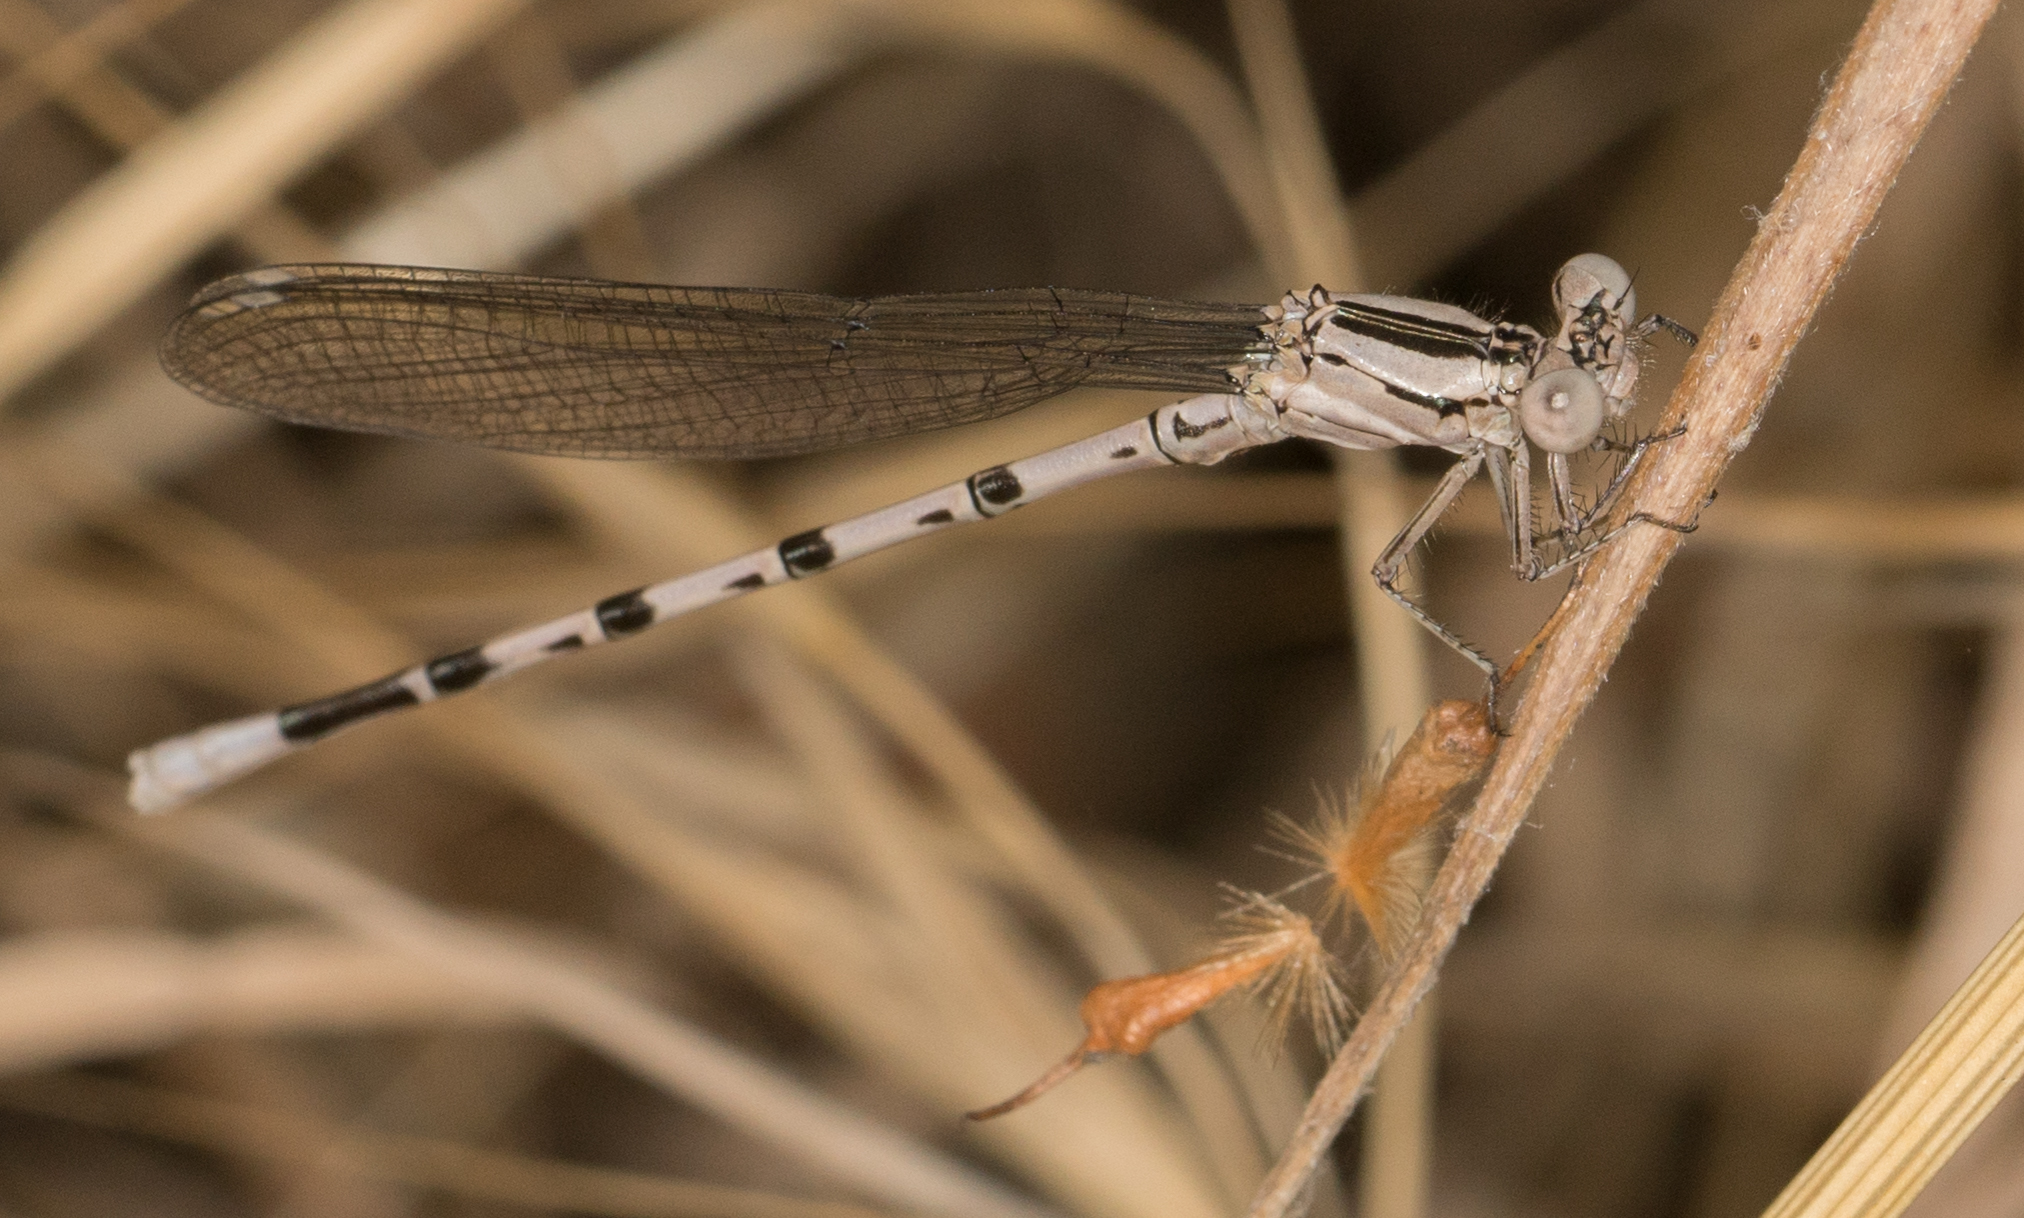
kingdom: Animalia
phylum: Arthropoda
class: Insecta
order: Odonata
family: Coenagrionidae
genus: Argia
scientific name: Argia vivida
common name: Vivid dancer
